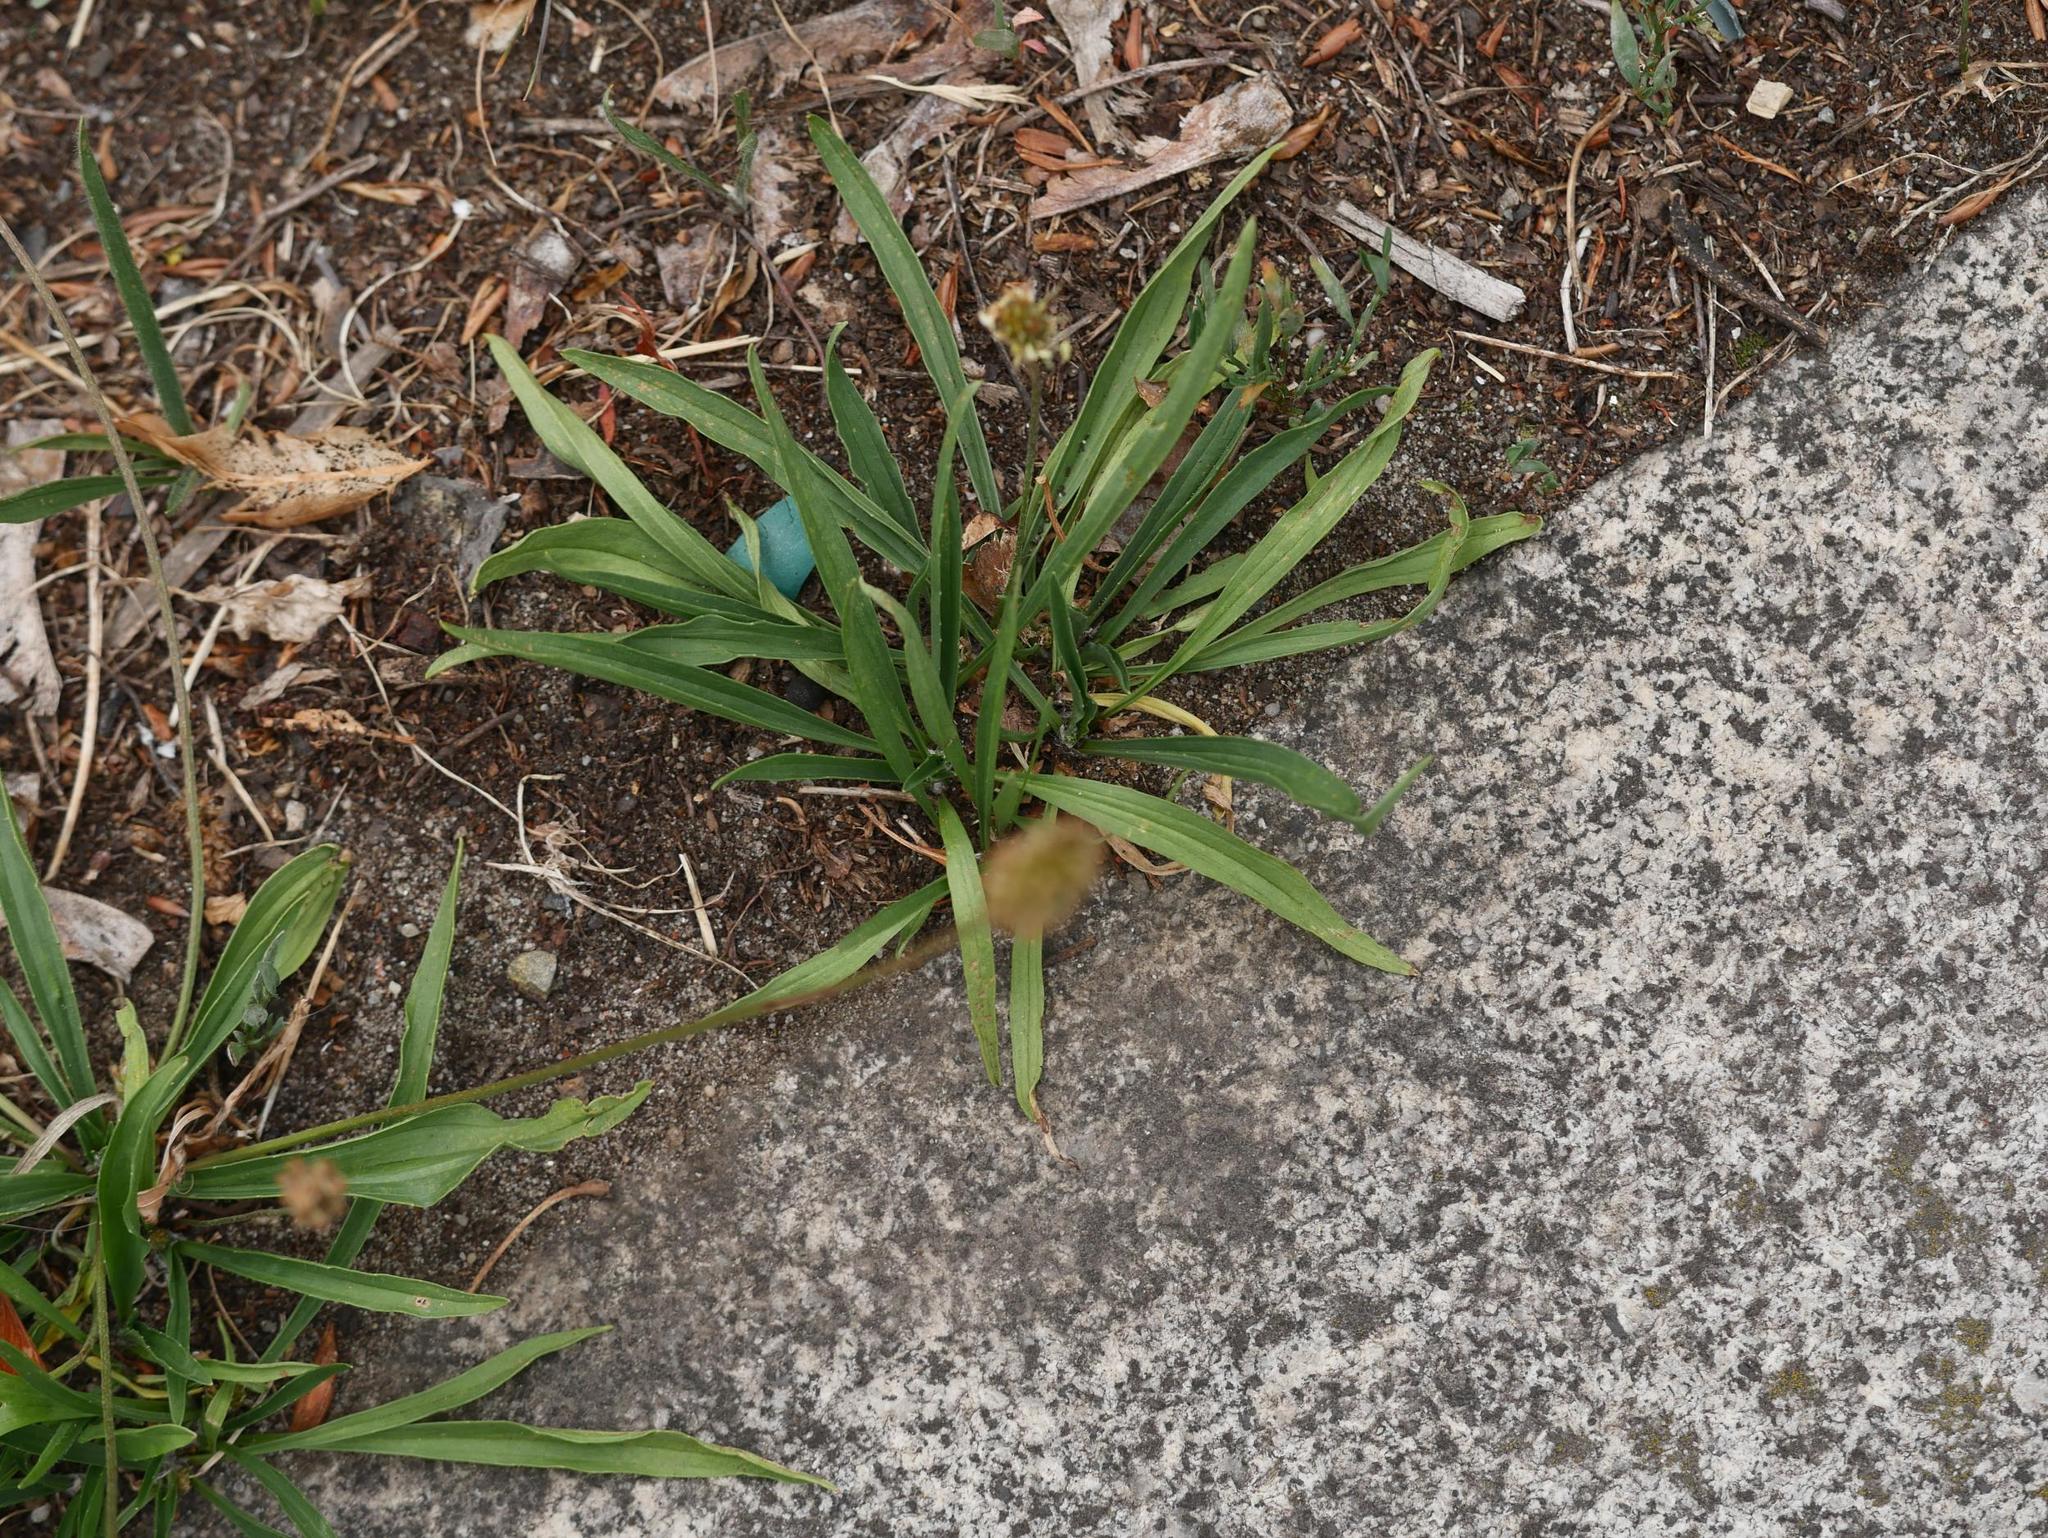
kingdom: Plantae
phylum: Tracheophyta
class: Magnoliopsida
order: Lamiales
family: Plantaginaceae
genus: Plantago
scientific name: Plantago lanceolata
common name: Ribwort plantain
